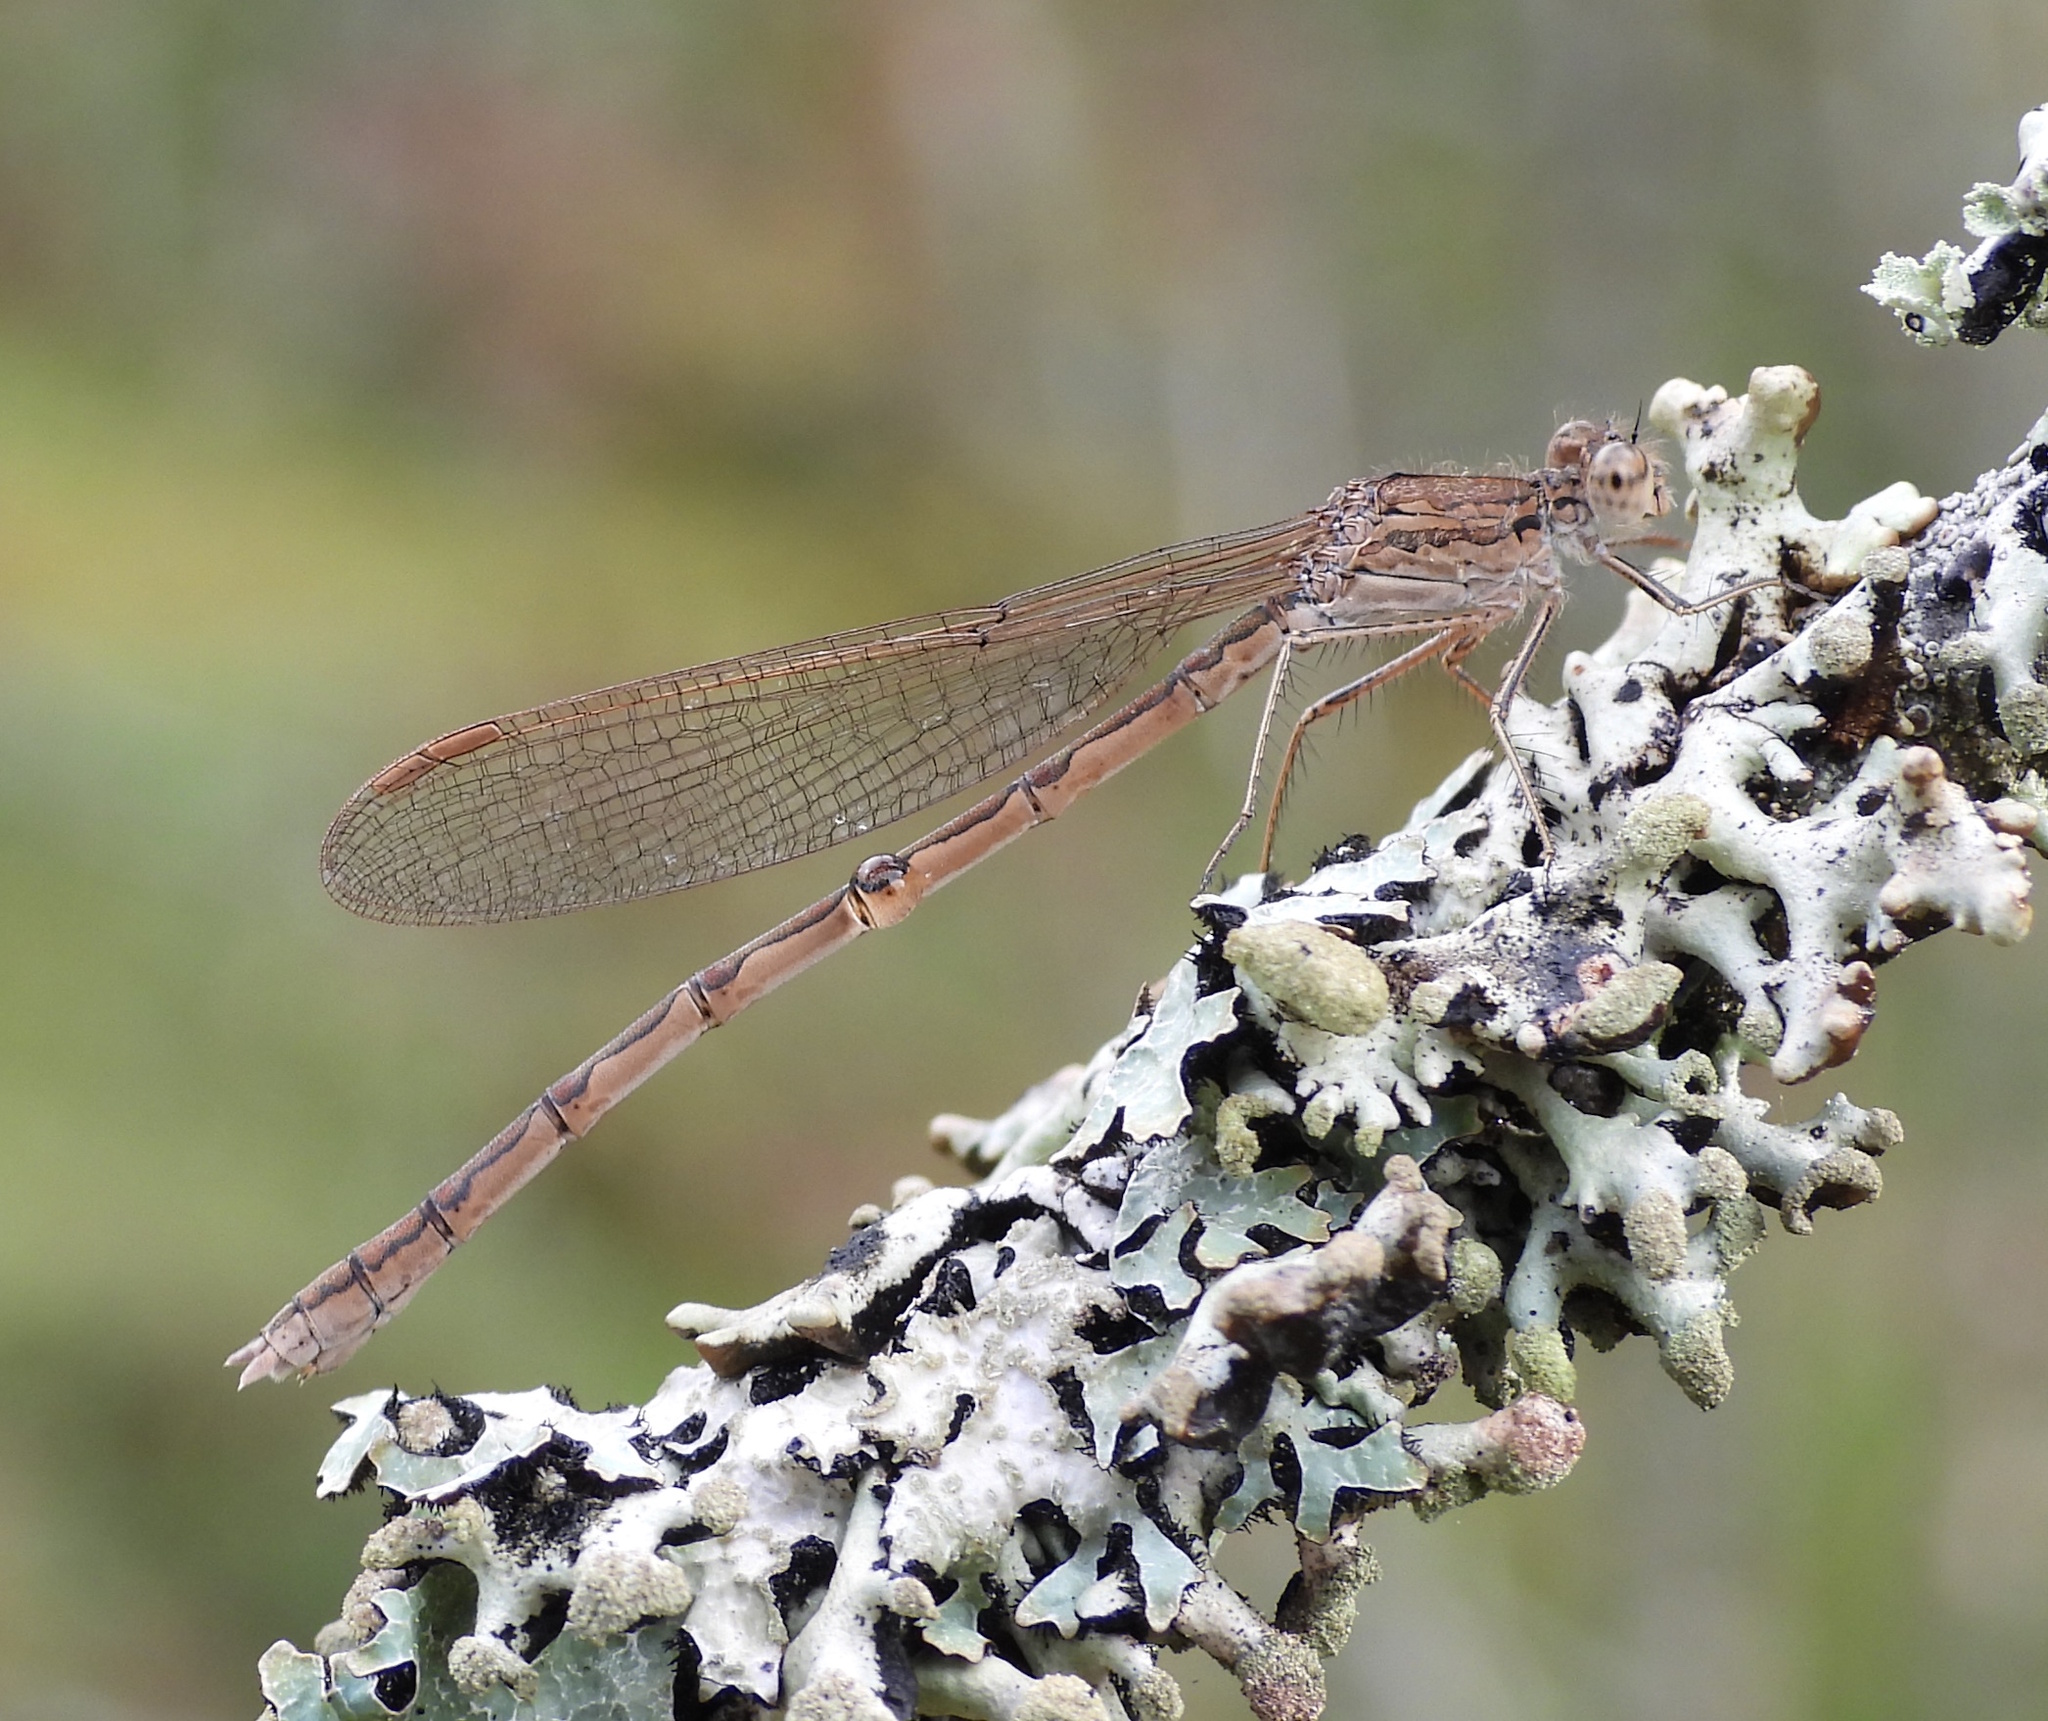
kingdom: Animalia
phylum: Arthropoda
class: Insecta
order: Odonata
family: Lestidae
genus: Sympecma
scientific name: Sympecma paedisca
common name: Siberian winter damsel
